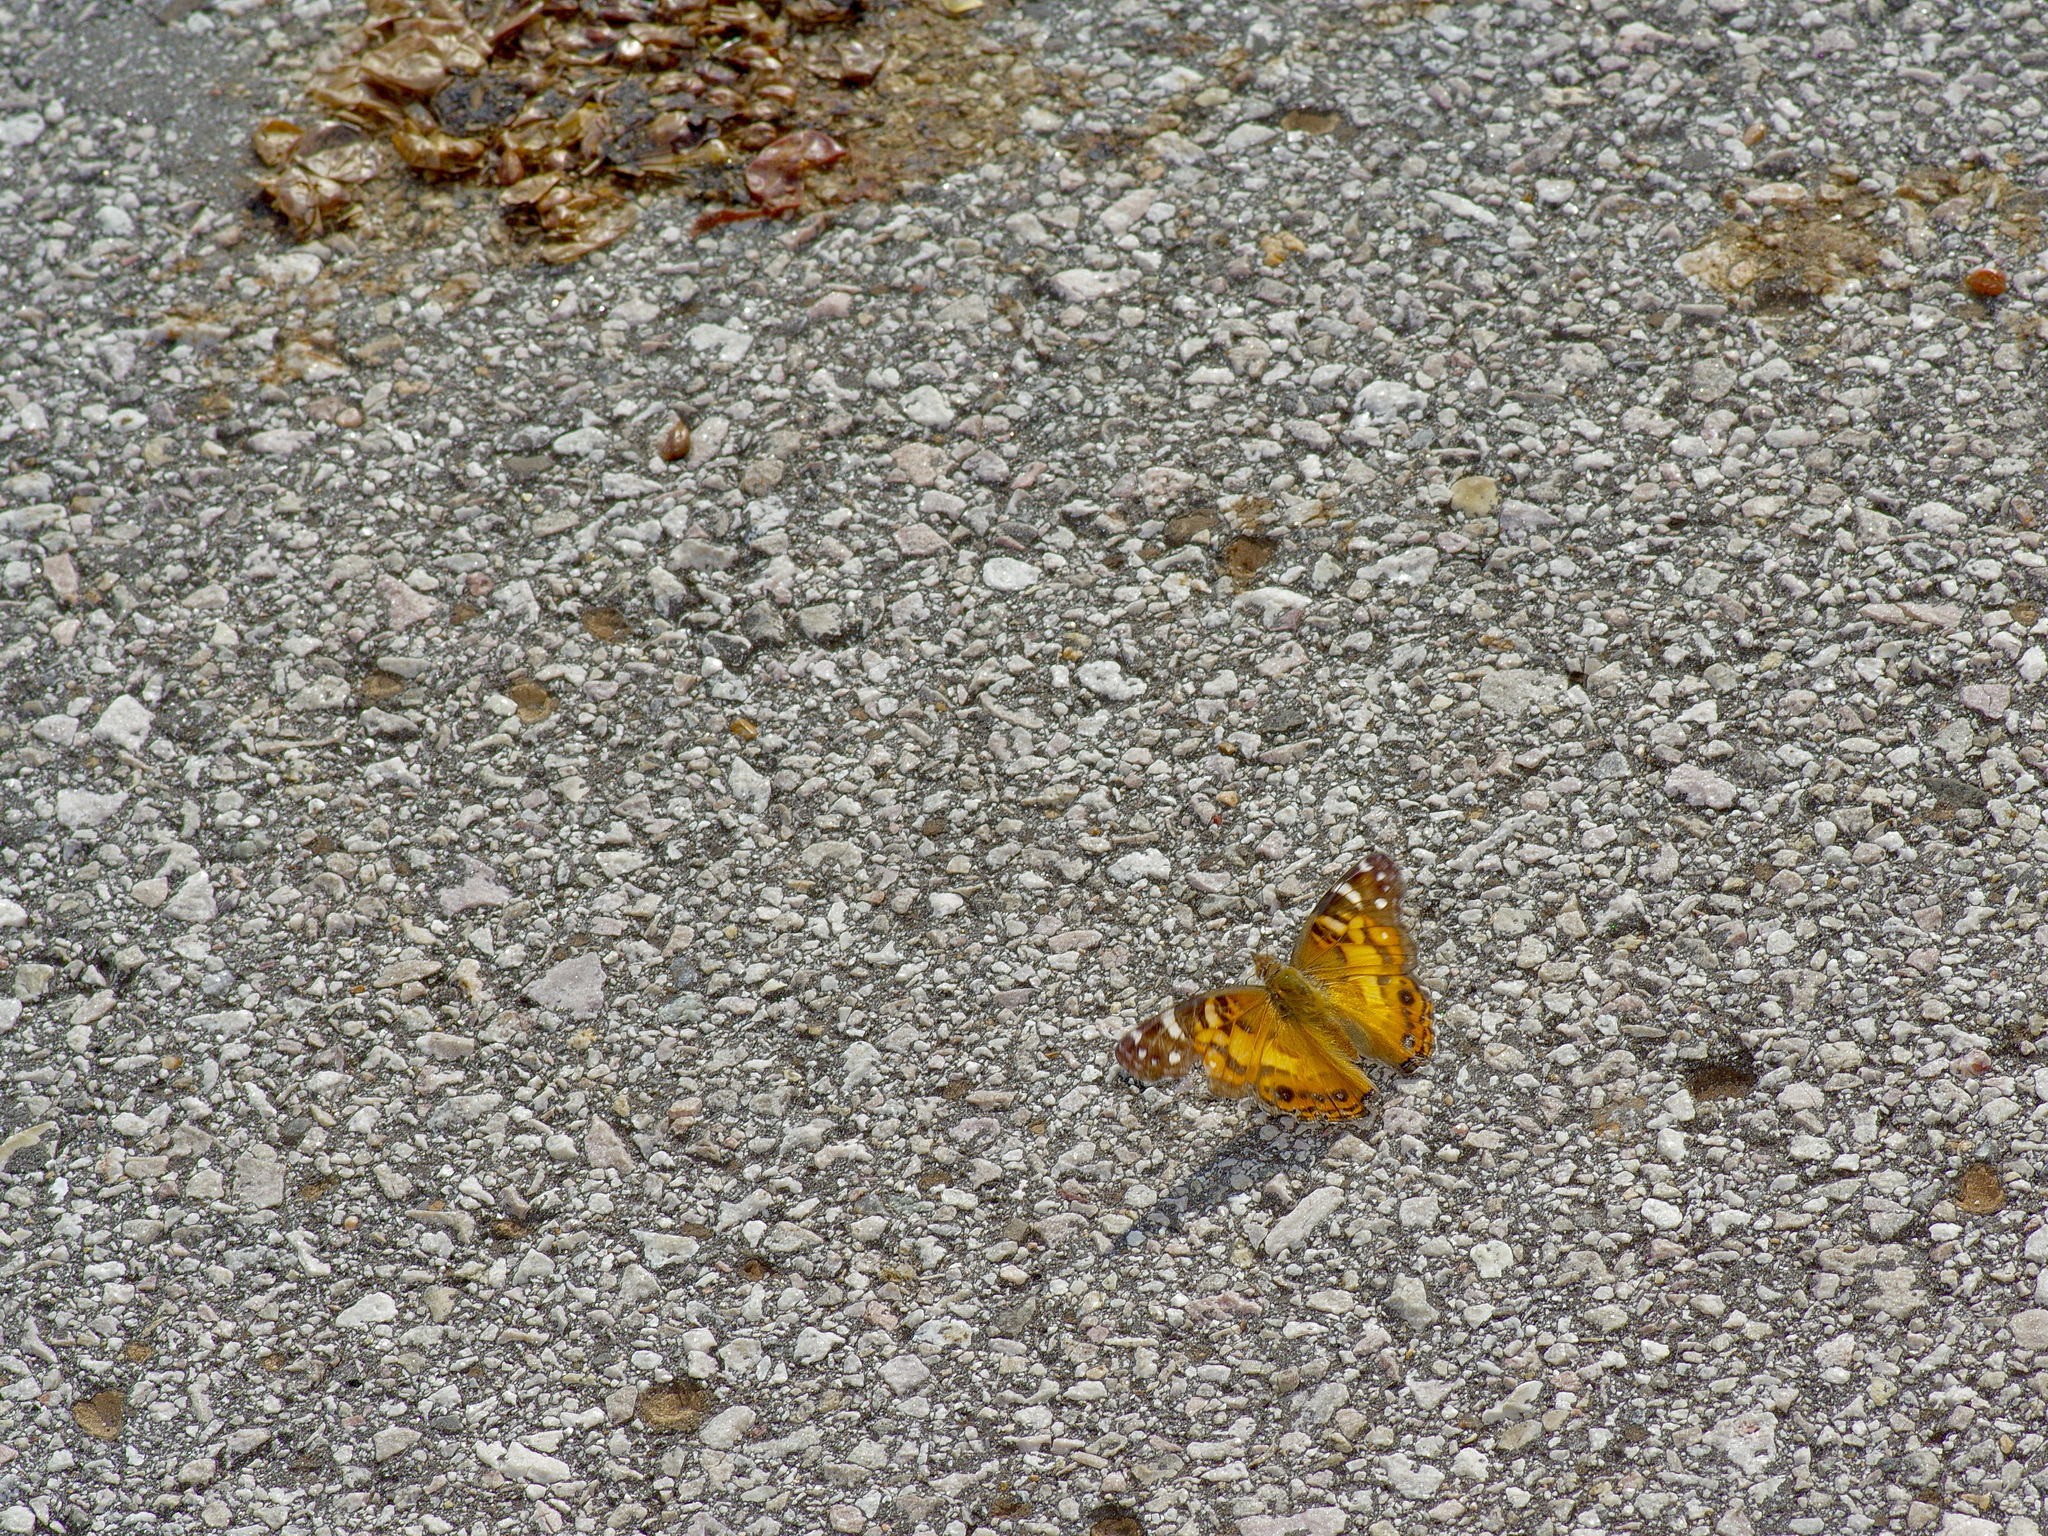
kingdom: Animalia
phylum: Arthropoda
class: Insecta
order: Lepidoptera
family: Nymphalidae
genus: Vanessa
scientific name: Vanessa virginiensis
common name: American lady
